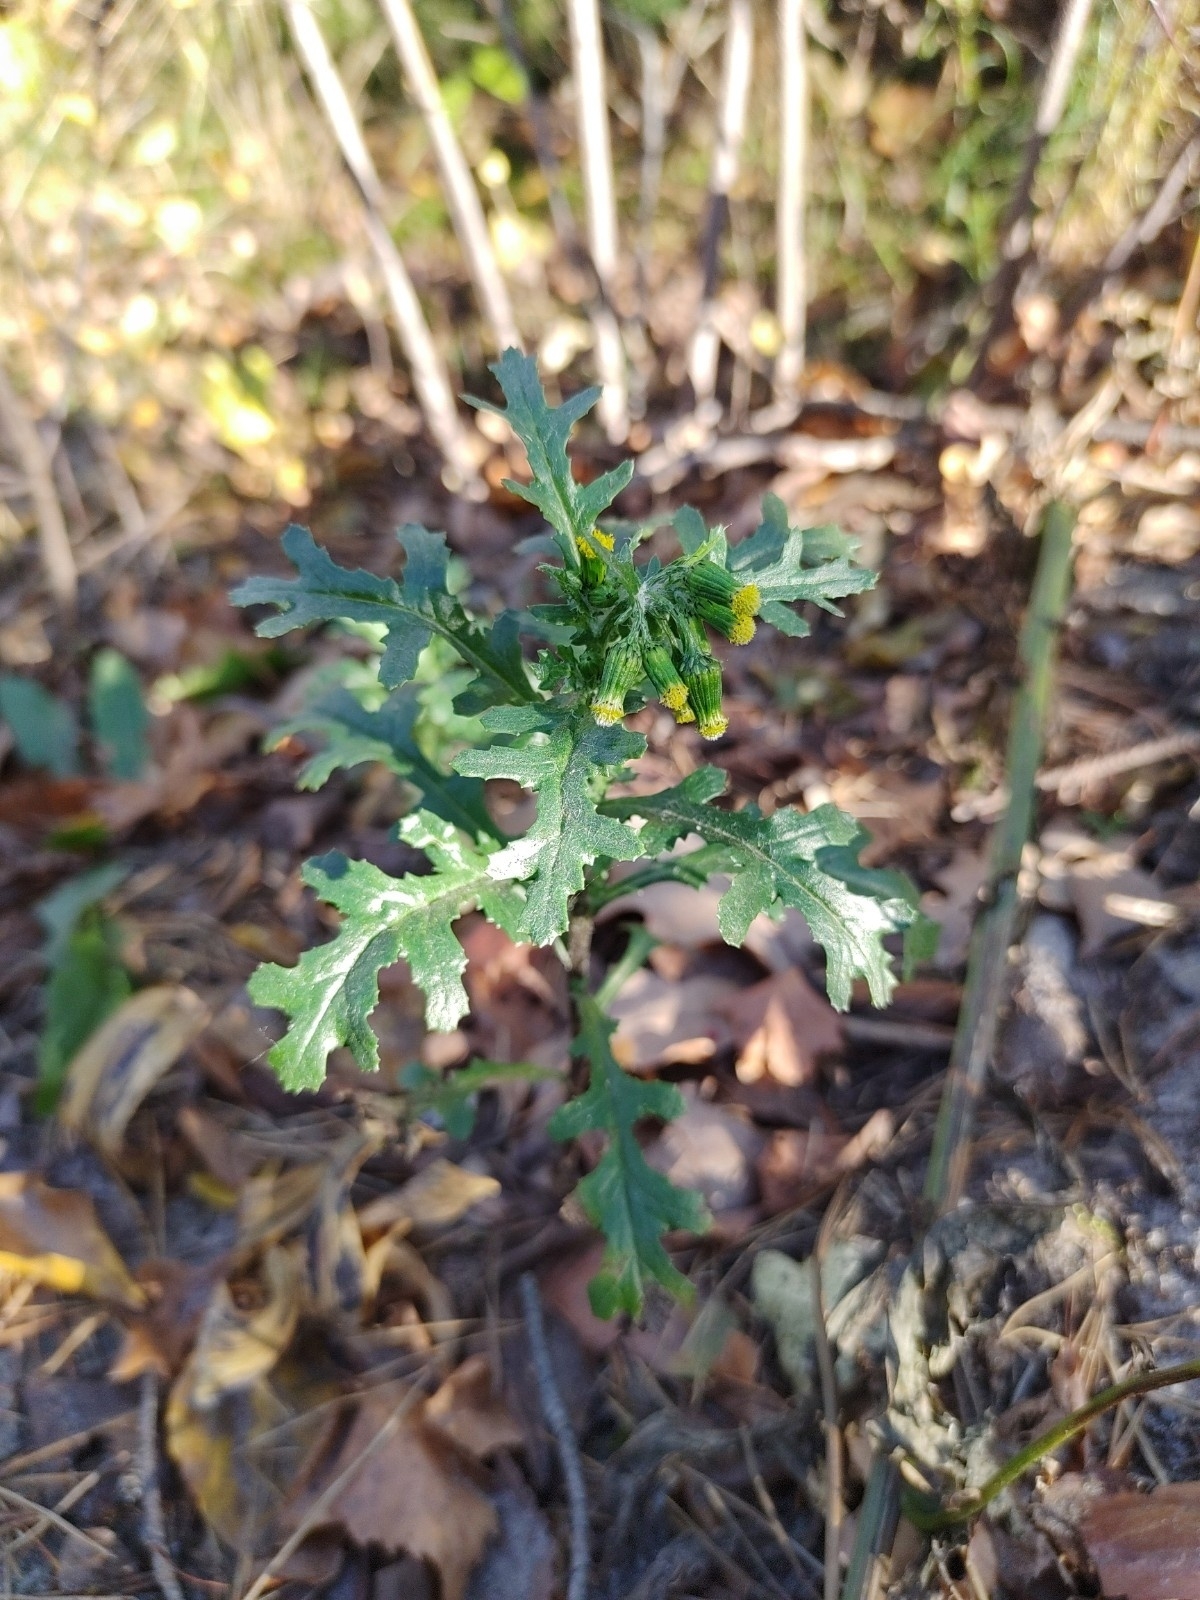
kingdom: Plantae
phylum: Tracheophyta
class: Magnoliopsida
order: Asterales
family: Asteraceae
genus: Senecio
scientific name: Senecio vulgaris
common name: Old-man-in-the-spring
